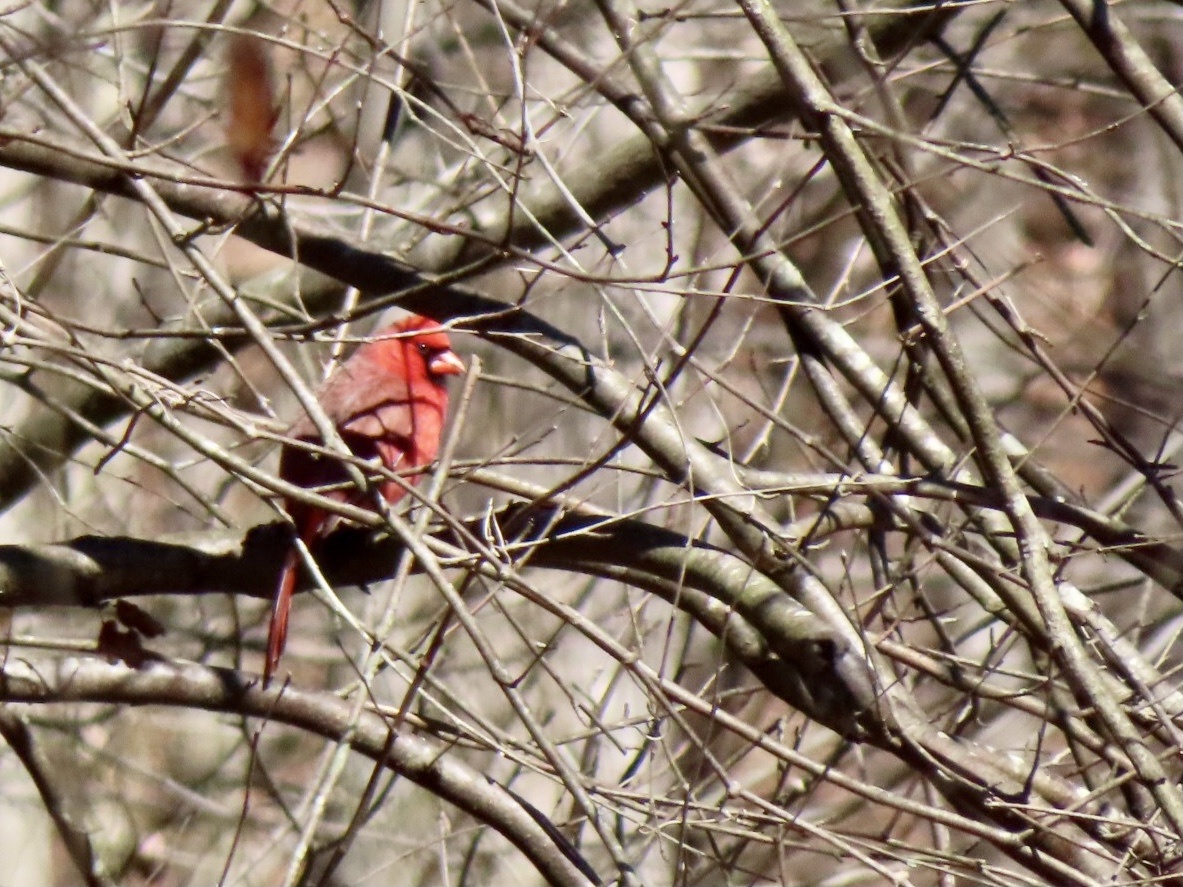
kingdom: Animalia
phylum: Chordata
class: Aves
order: Passeriformes
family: Cardinalidae
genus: Cardinalis
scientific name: Cardinalis cardinalis
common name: Northern cardinal
